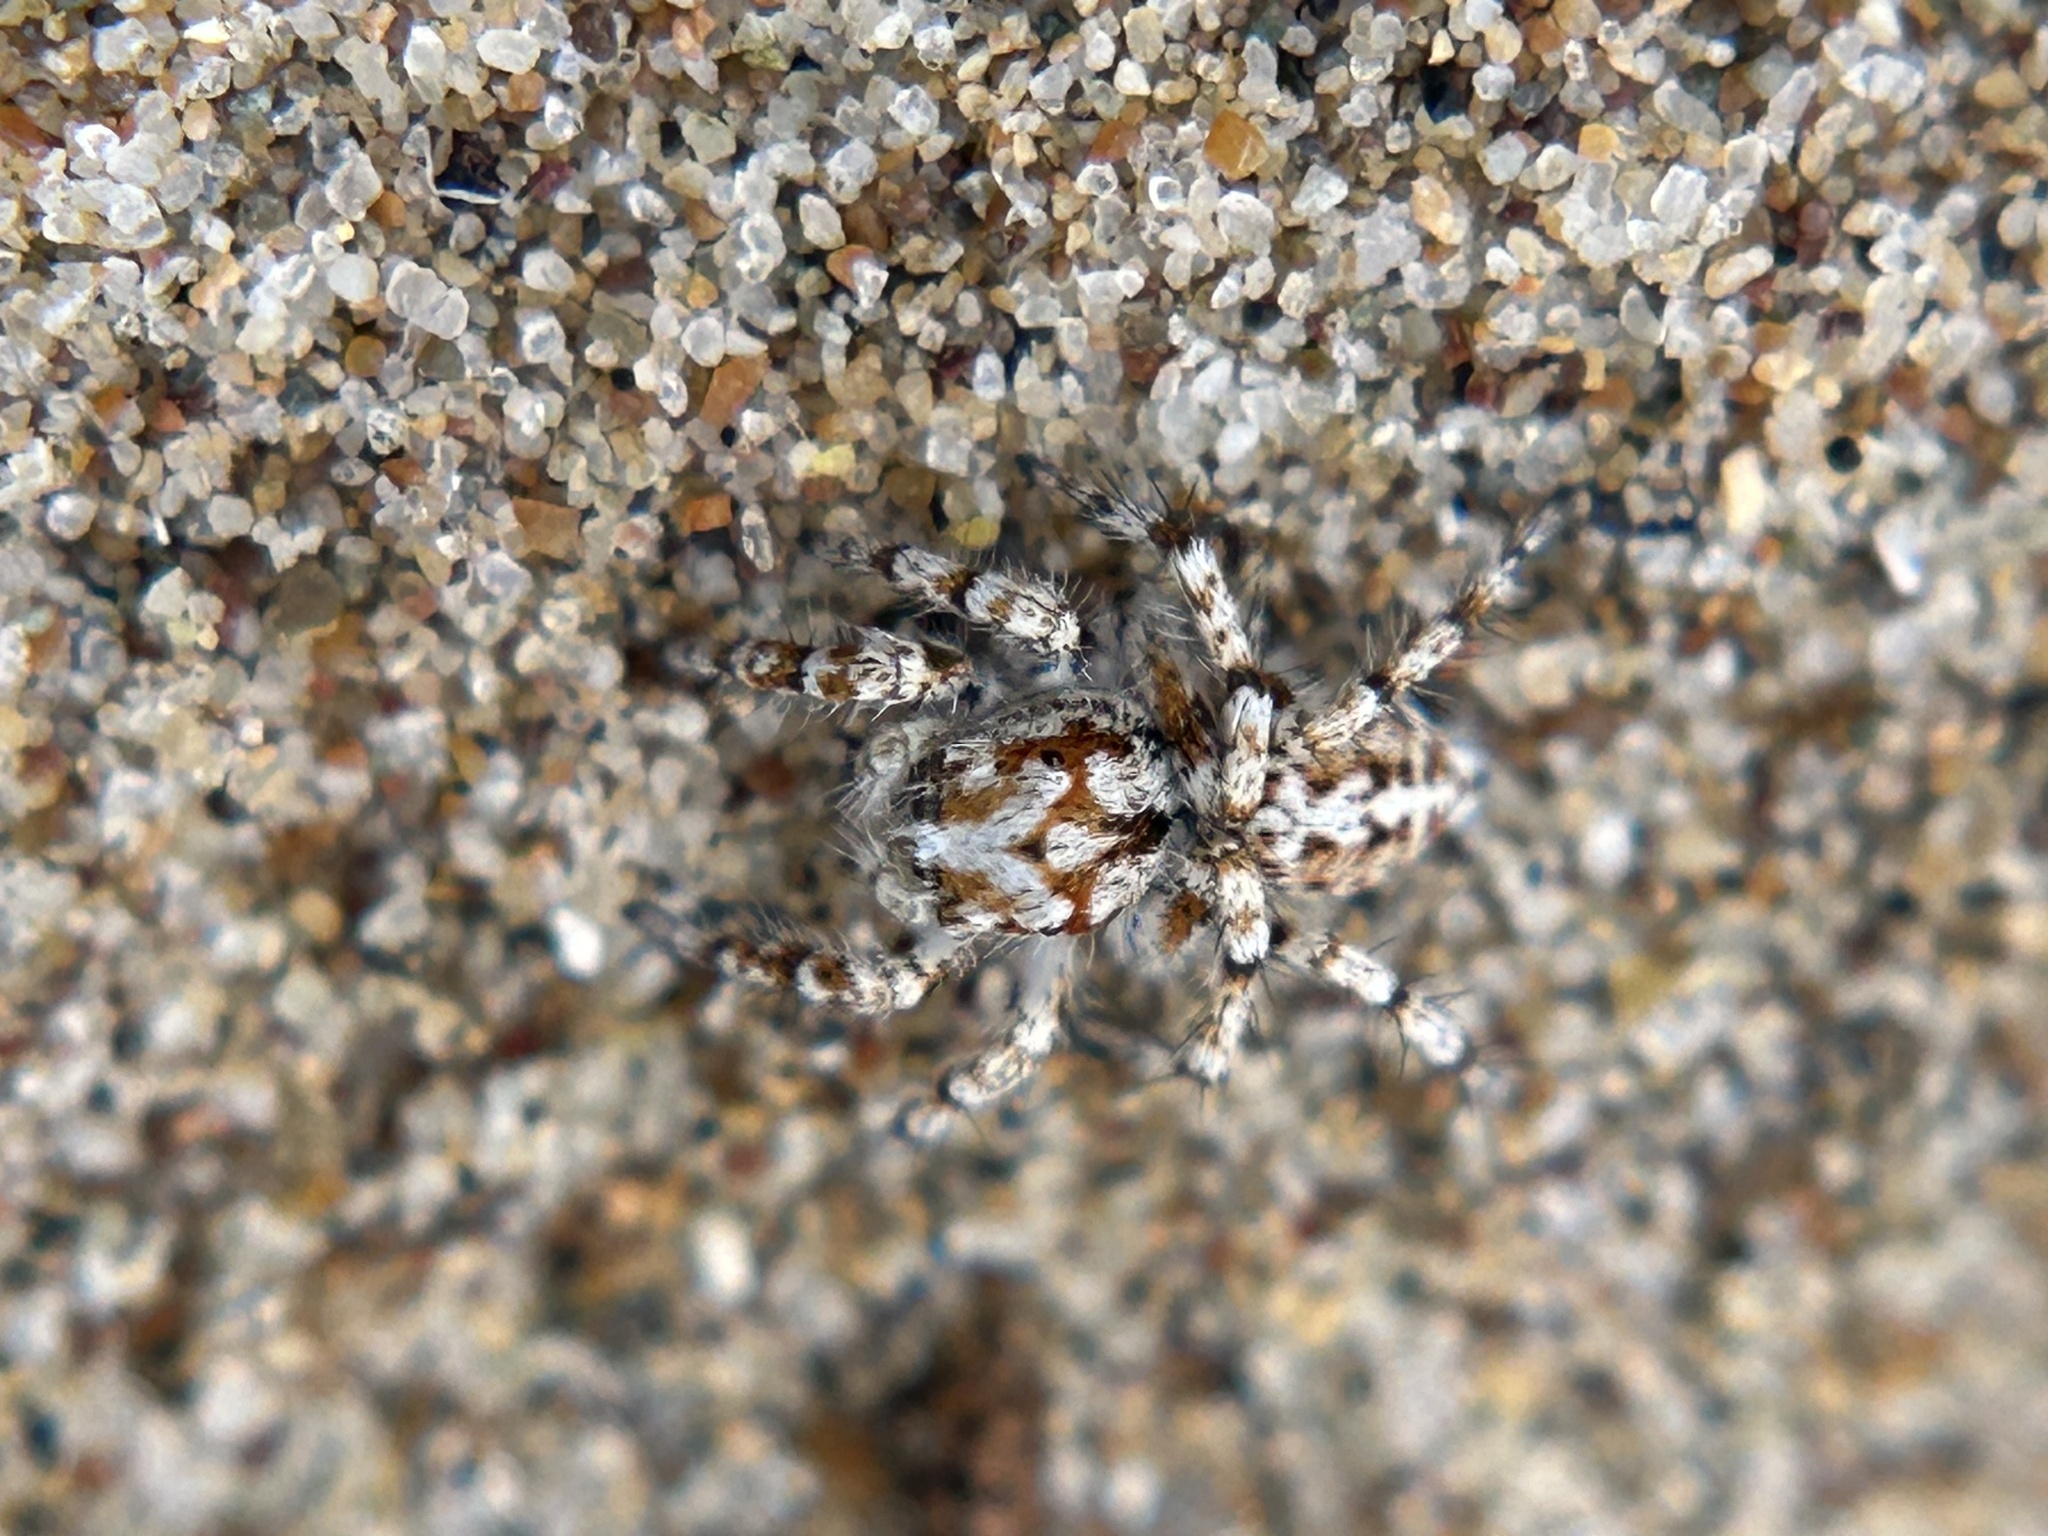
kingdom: Animalia
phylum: Arthropoda
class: Arachnida
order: Araneae
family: Salticidae
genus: Habronattus
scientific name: Habronattus amicus
